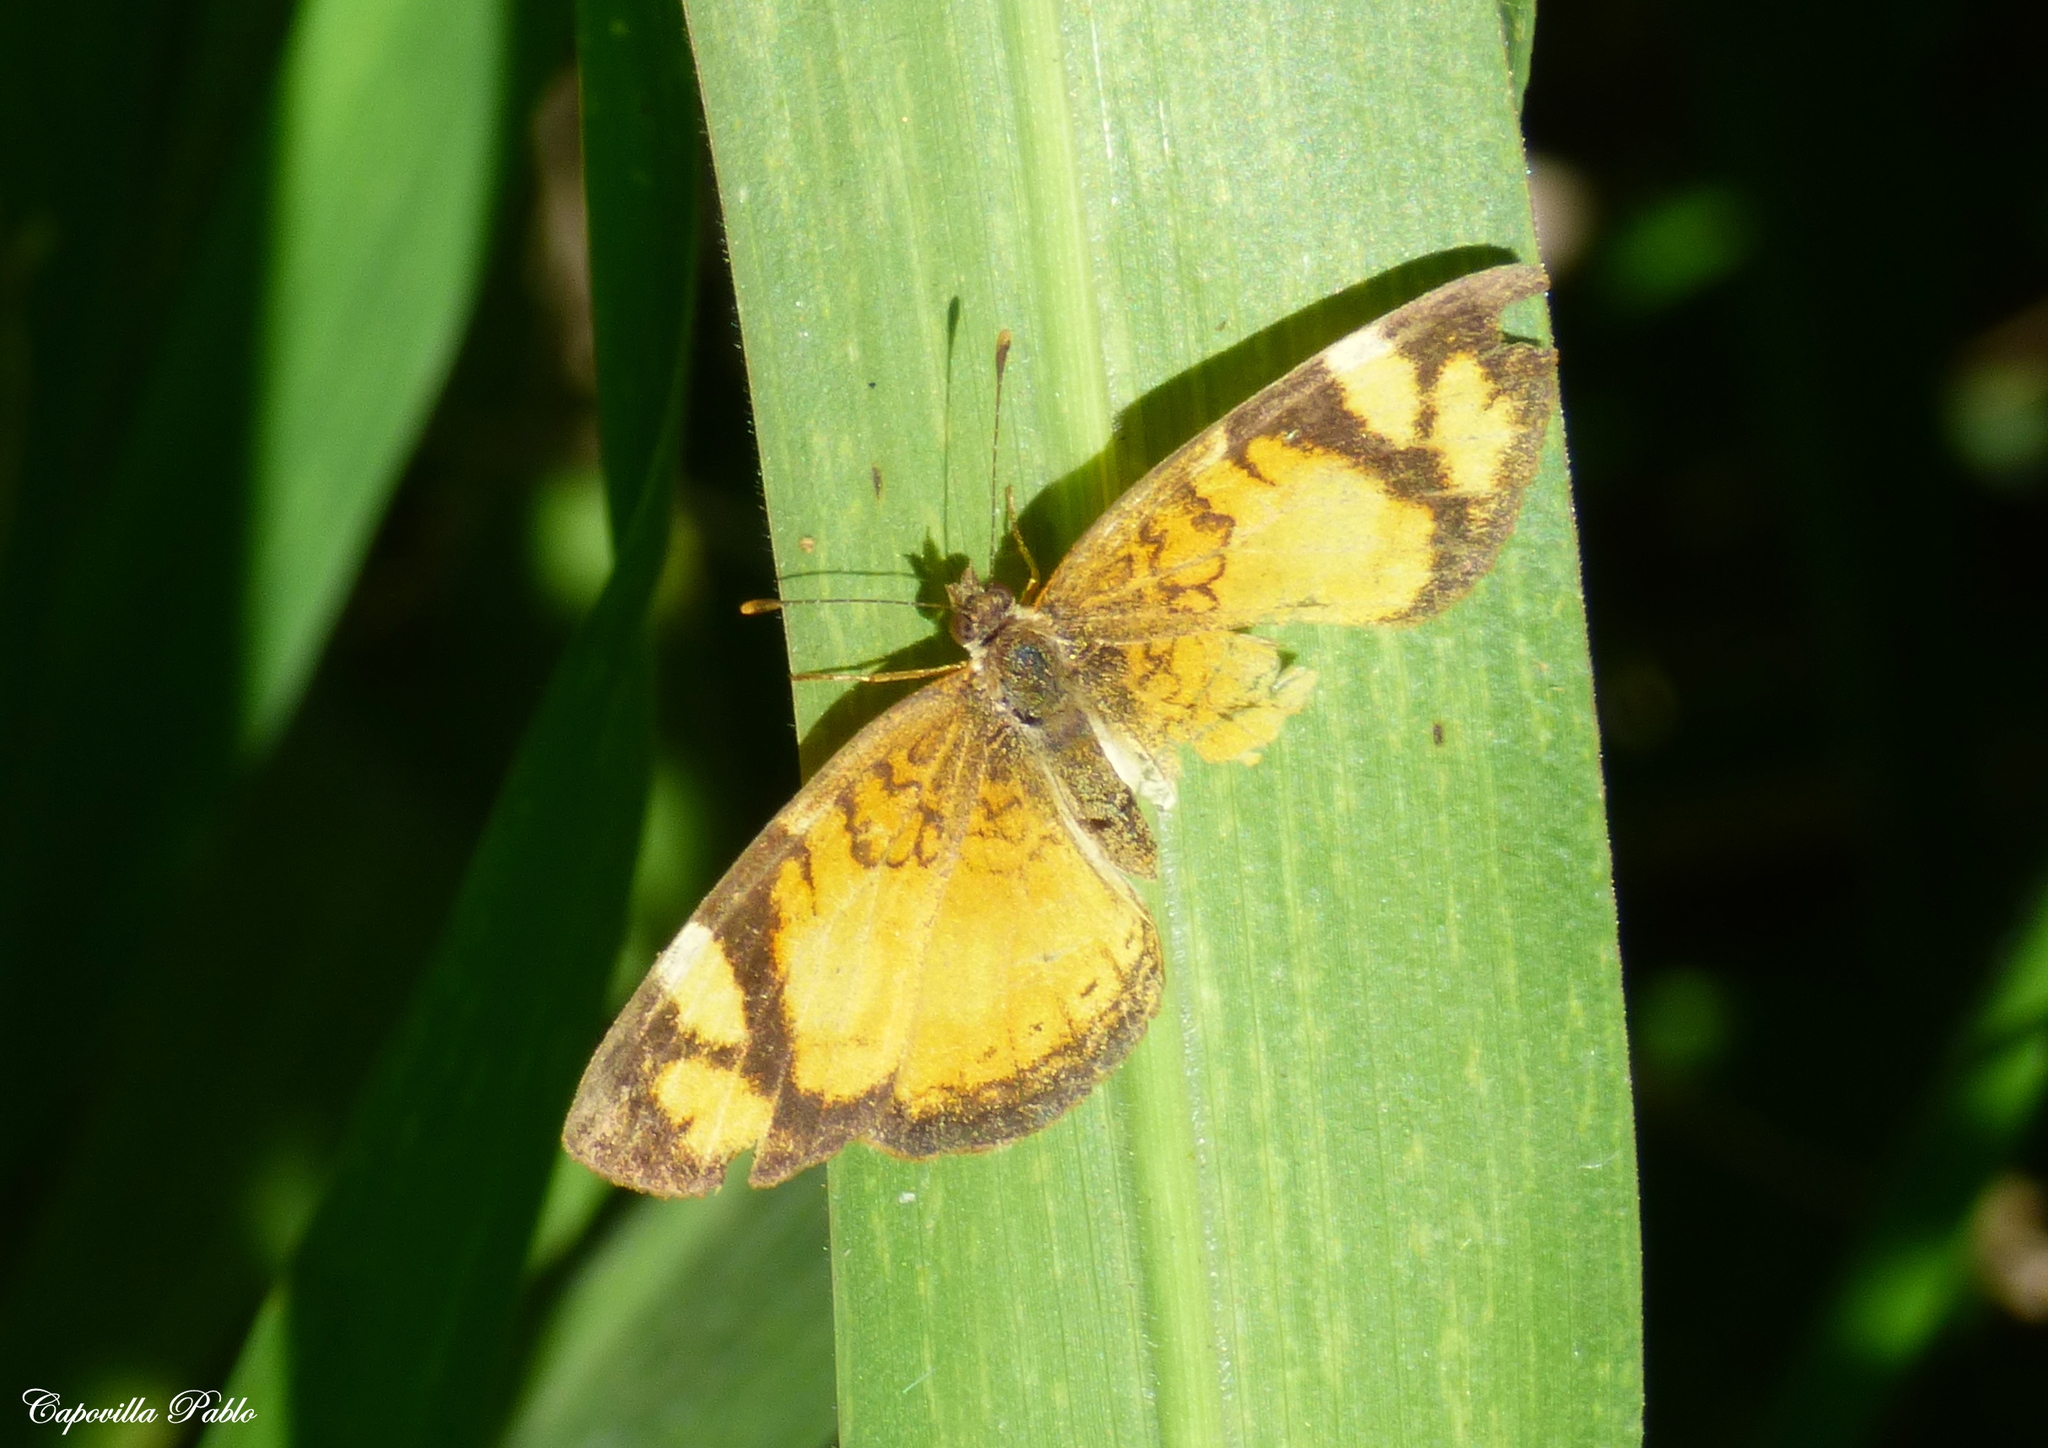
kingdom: Animalia
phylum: Arthropoda
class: Insecta
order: Lepidoptera
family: Nymphalidae
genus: Tegosa
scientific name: Tegosa claudina
